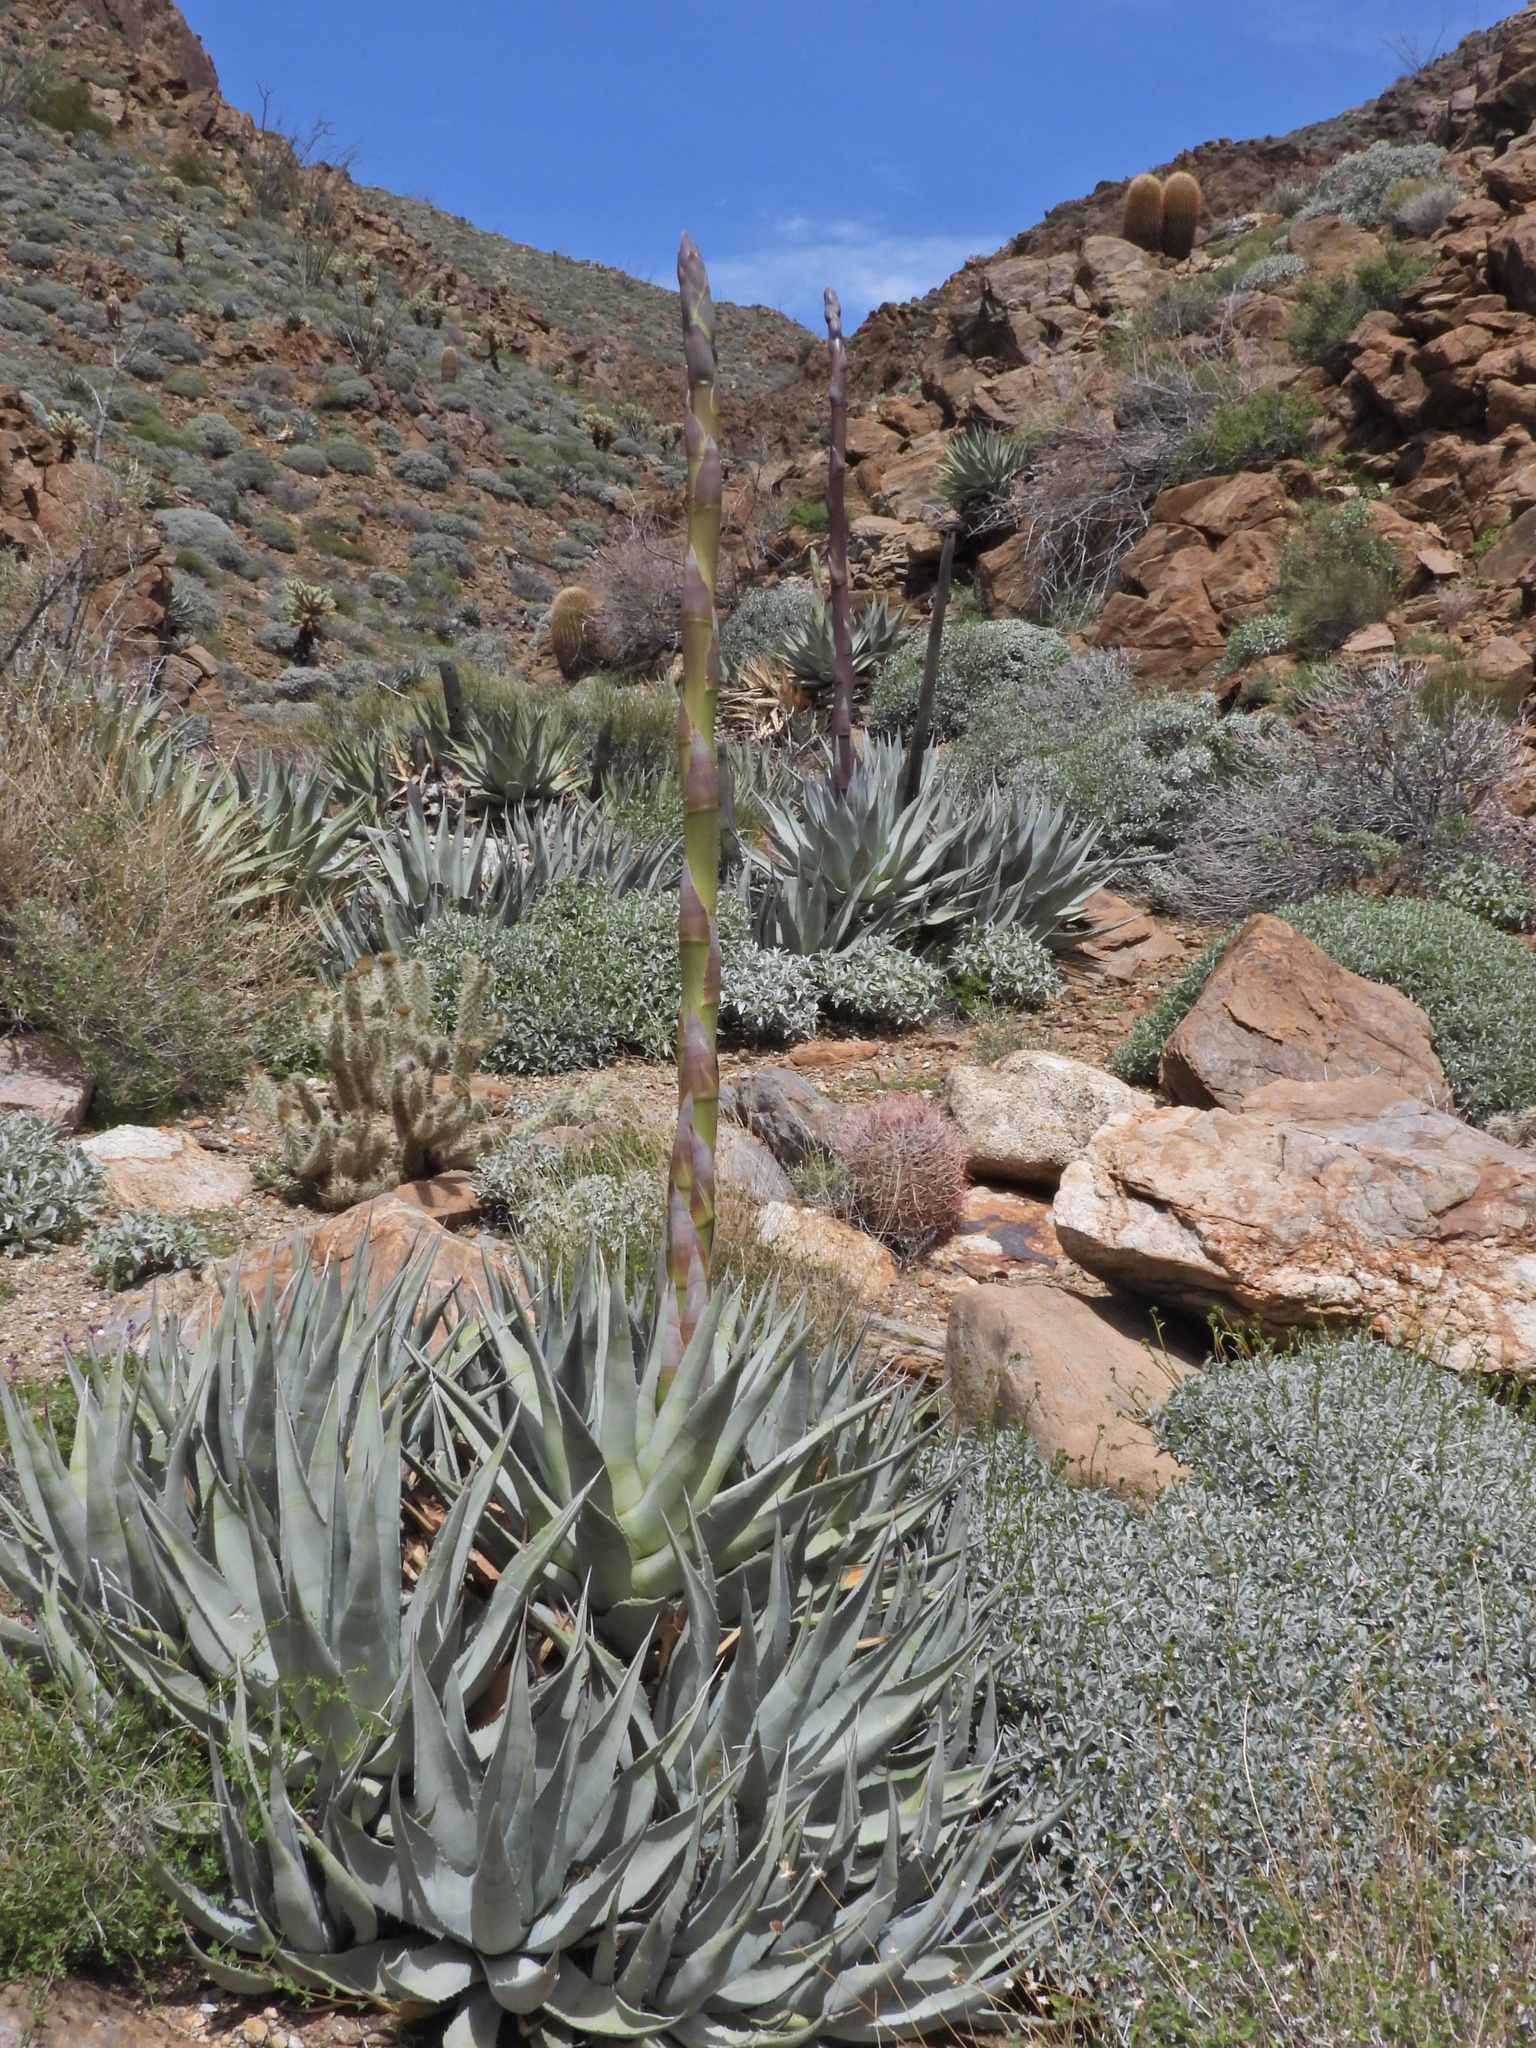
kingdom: Plantae
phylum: Tracheophyta
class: Liliopsida
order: Asparagales
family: Asparagaceae
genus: Agave
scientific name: Agave deserti
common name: Desert agave
